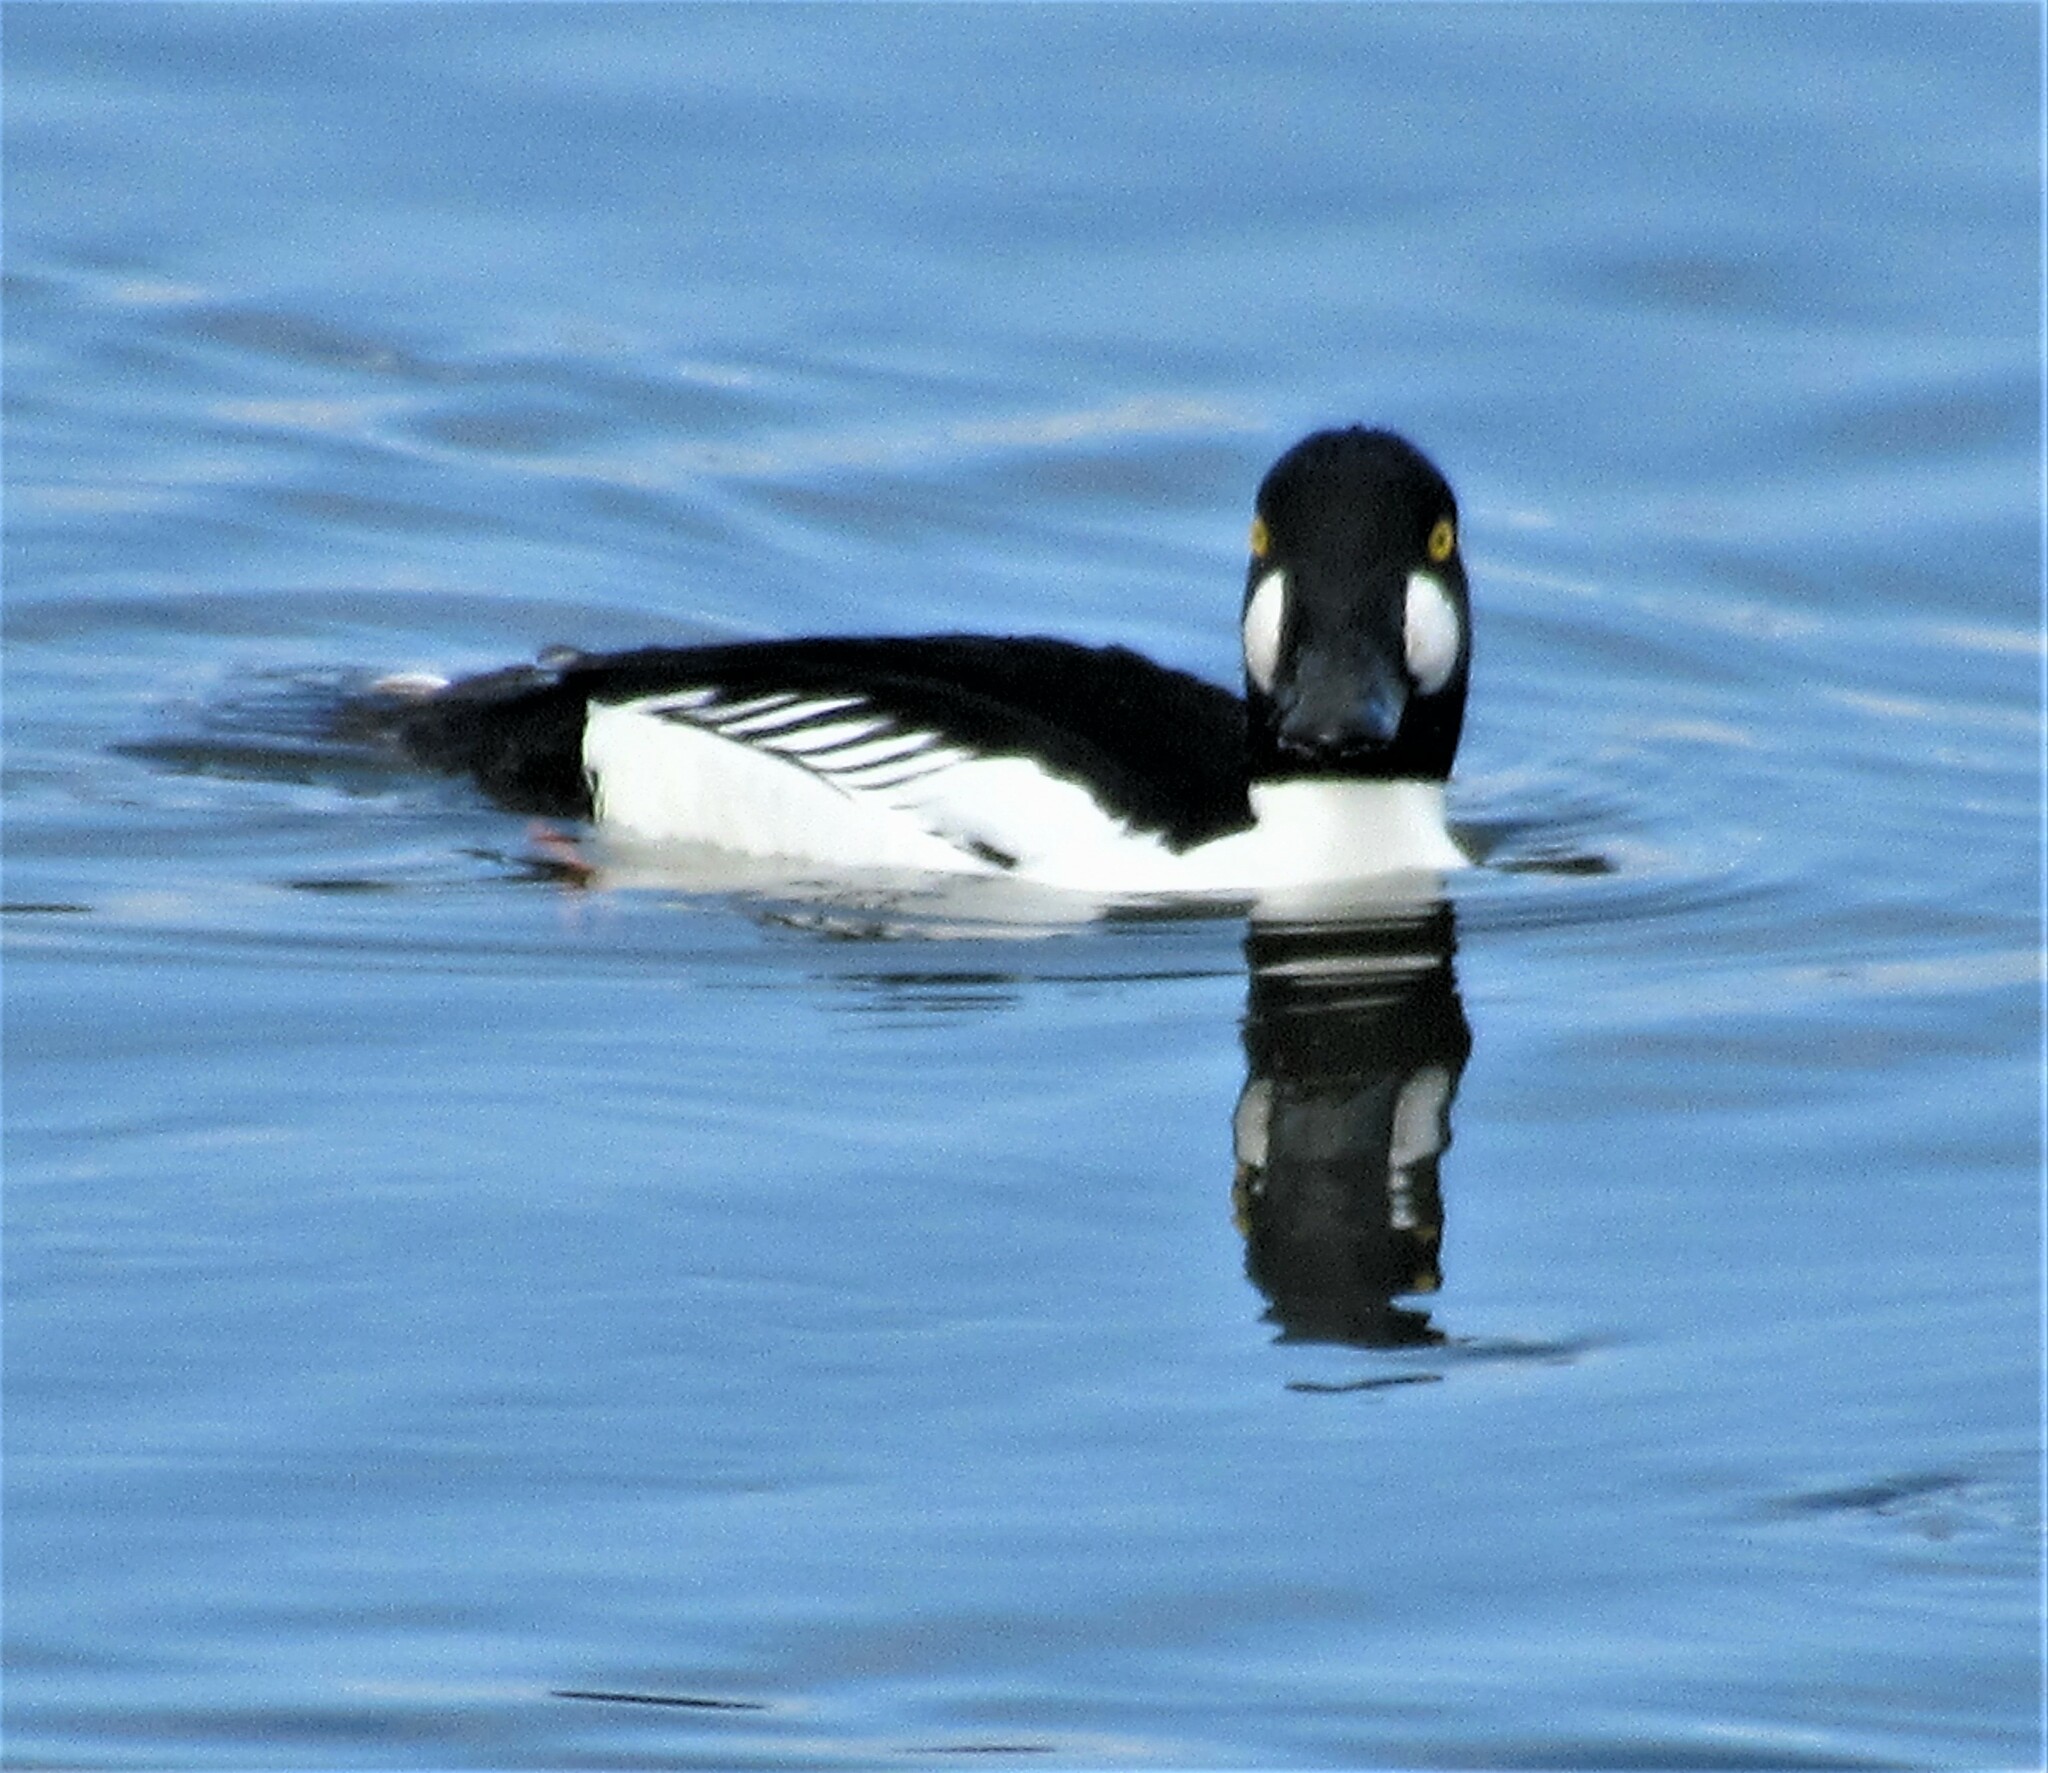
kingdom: Animalia
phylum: Chordata
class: Aves
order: Anseriformes
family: Anatidae
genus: Bucephala
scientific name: Bucephala clangula
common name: Common goldeneye
